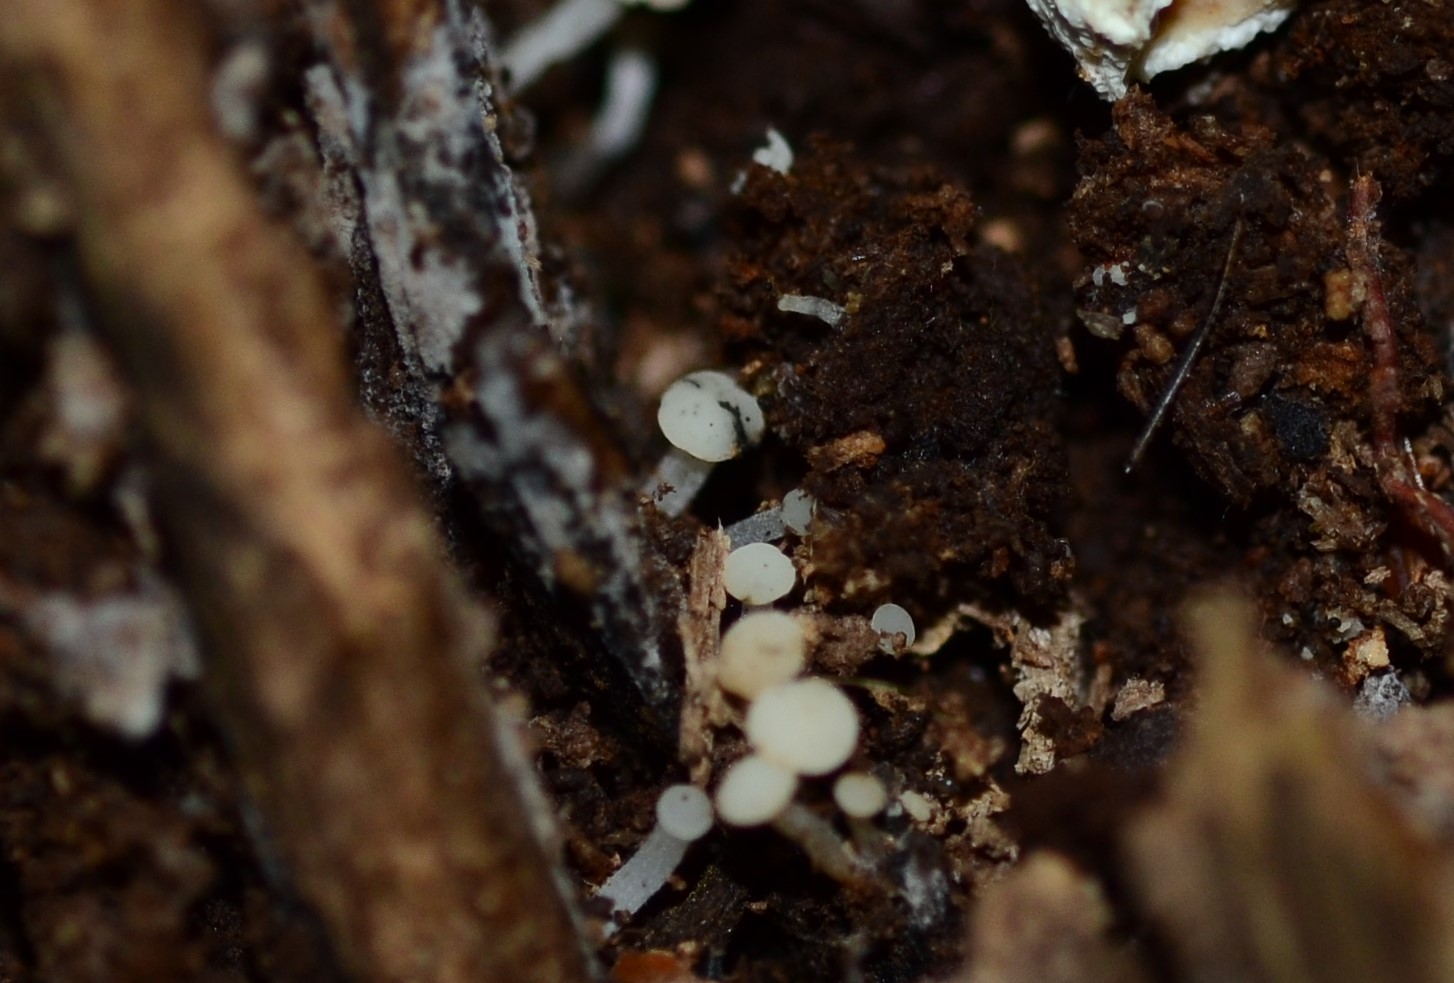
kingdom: Fungi
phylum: Ascomycota
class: Leotiomycetes
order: Helotiales
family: Tricladiaceae
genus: Cudoniella
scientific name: Cudoniella acicularis
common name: Oak pin
